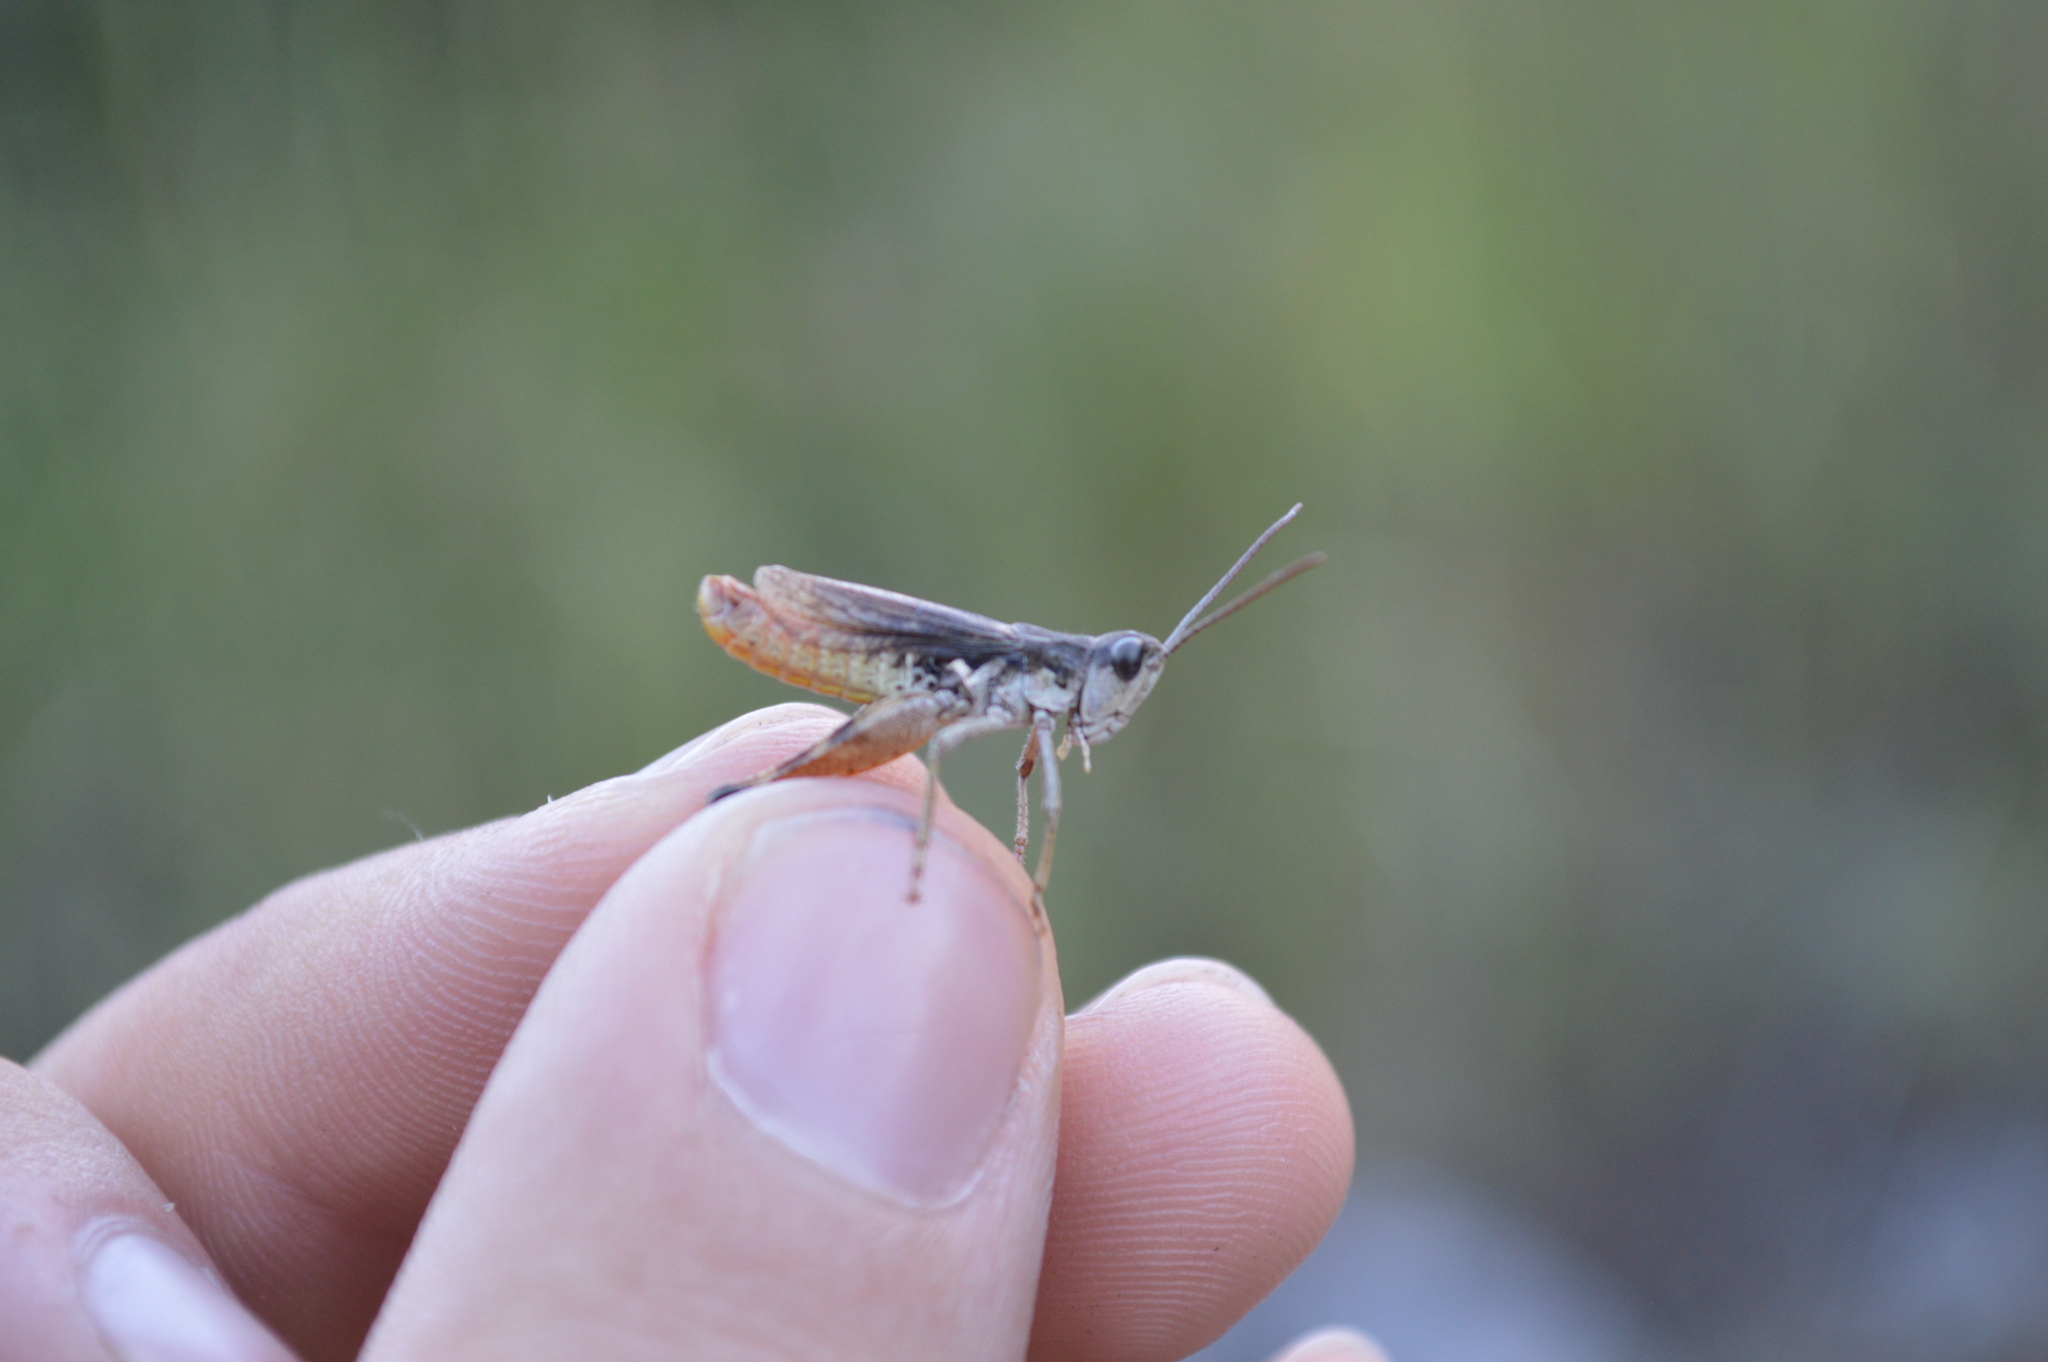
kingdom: Animalia
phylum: Arthropoda
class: Insecta
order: Orthoptera
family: Acrididae
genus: Chorthippus
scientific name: Chorthippus pullus
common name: Gravel grasshopper
